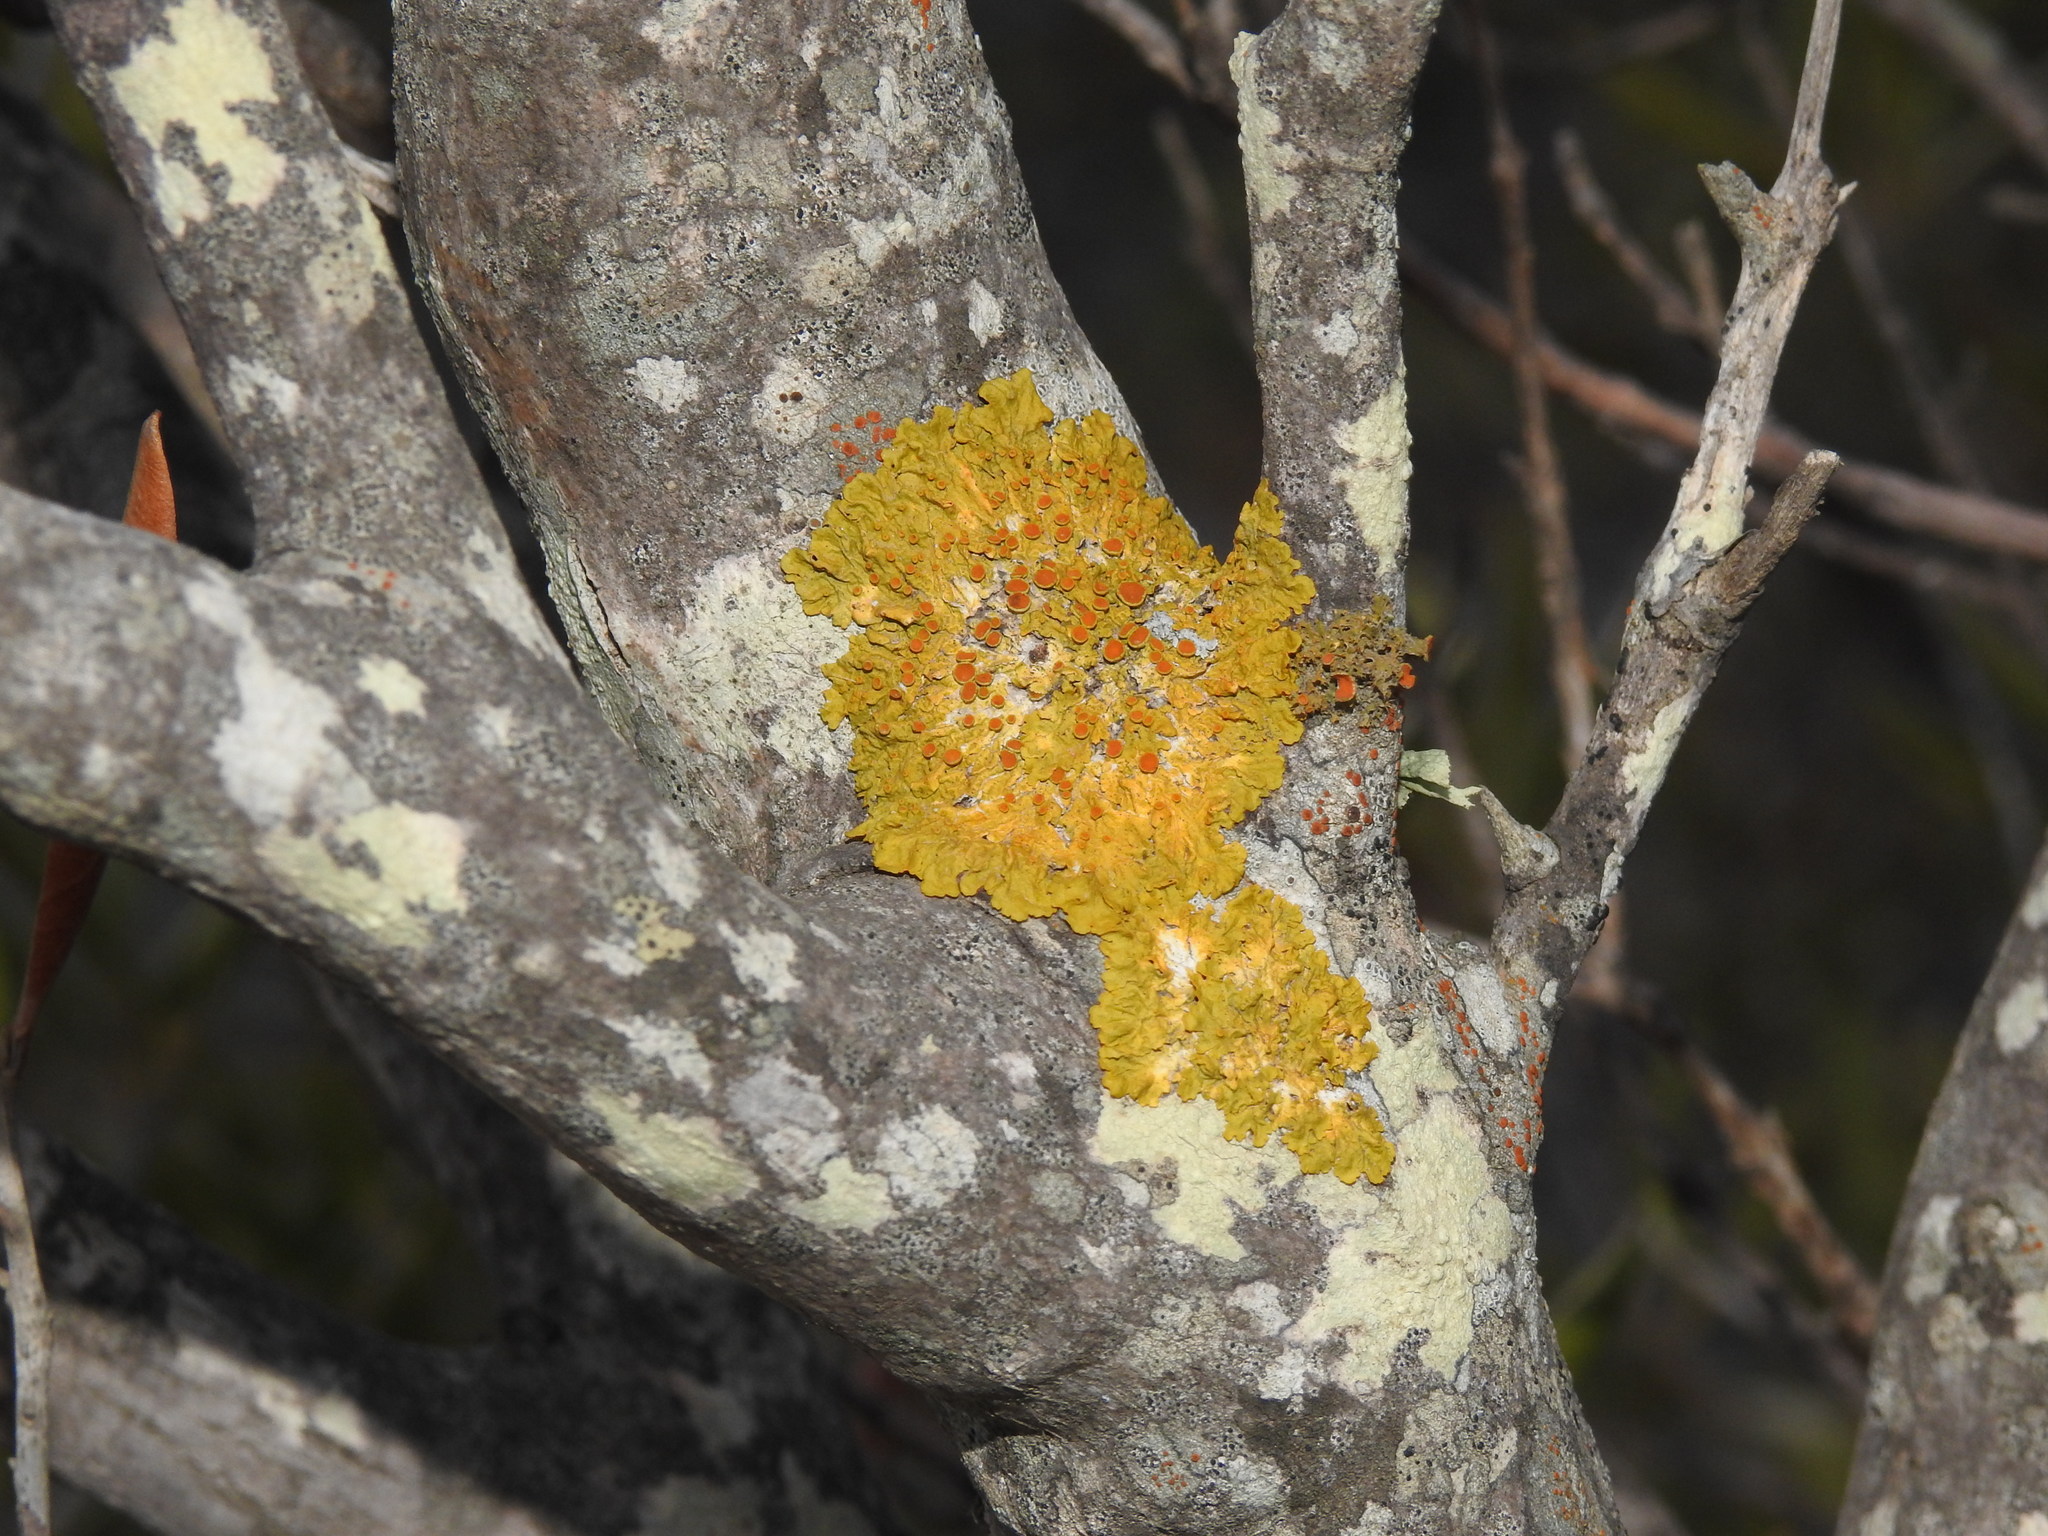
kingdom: Fungi
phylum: Ascomycota
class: Lecanoromycetes
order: Teloschistales
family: Teloschistaceae
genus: Xanthoria
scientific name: Xanthoria parietina
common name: Common orange lichen
